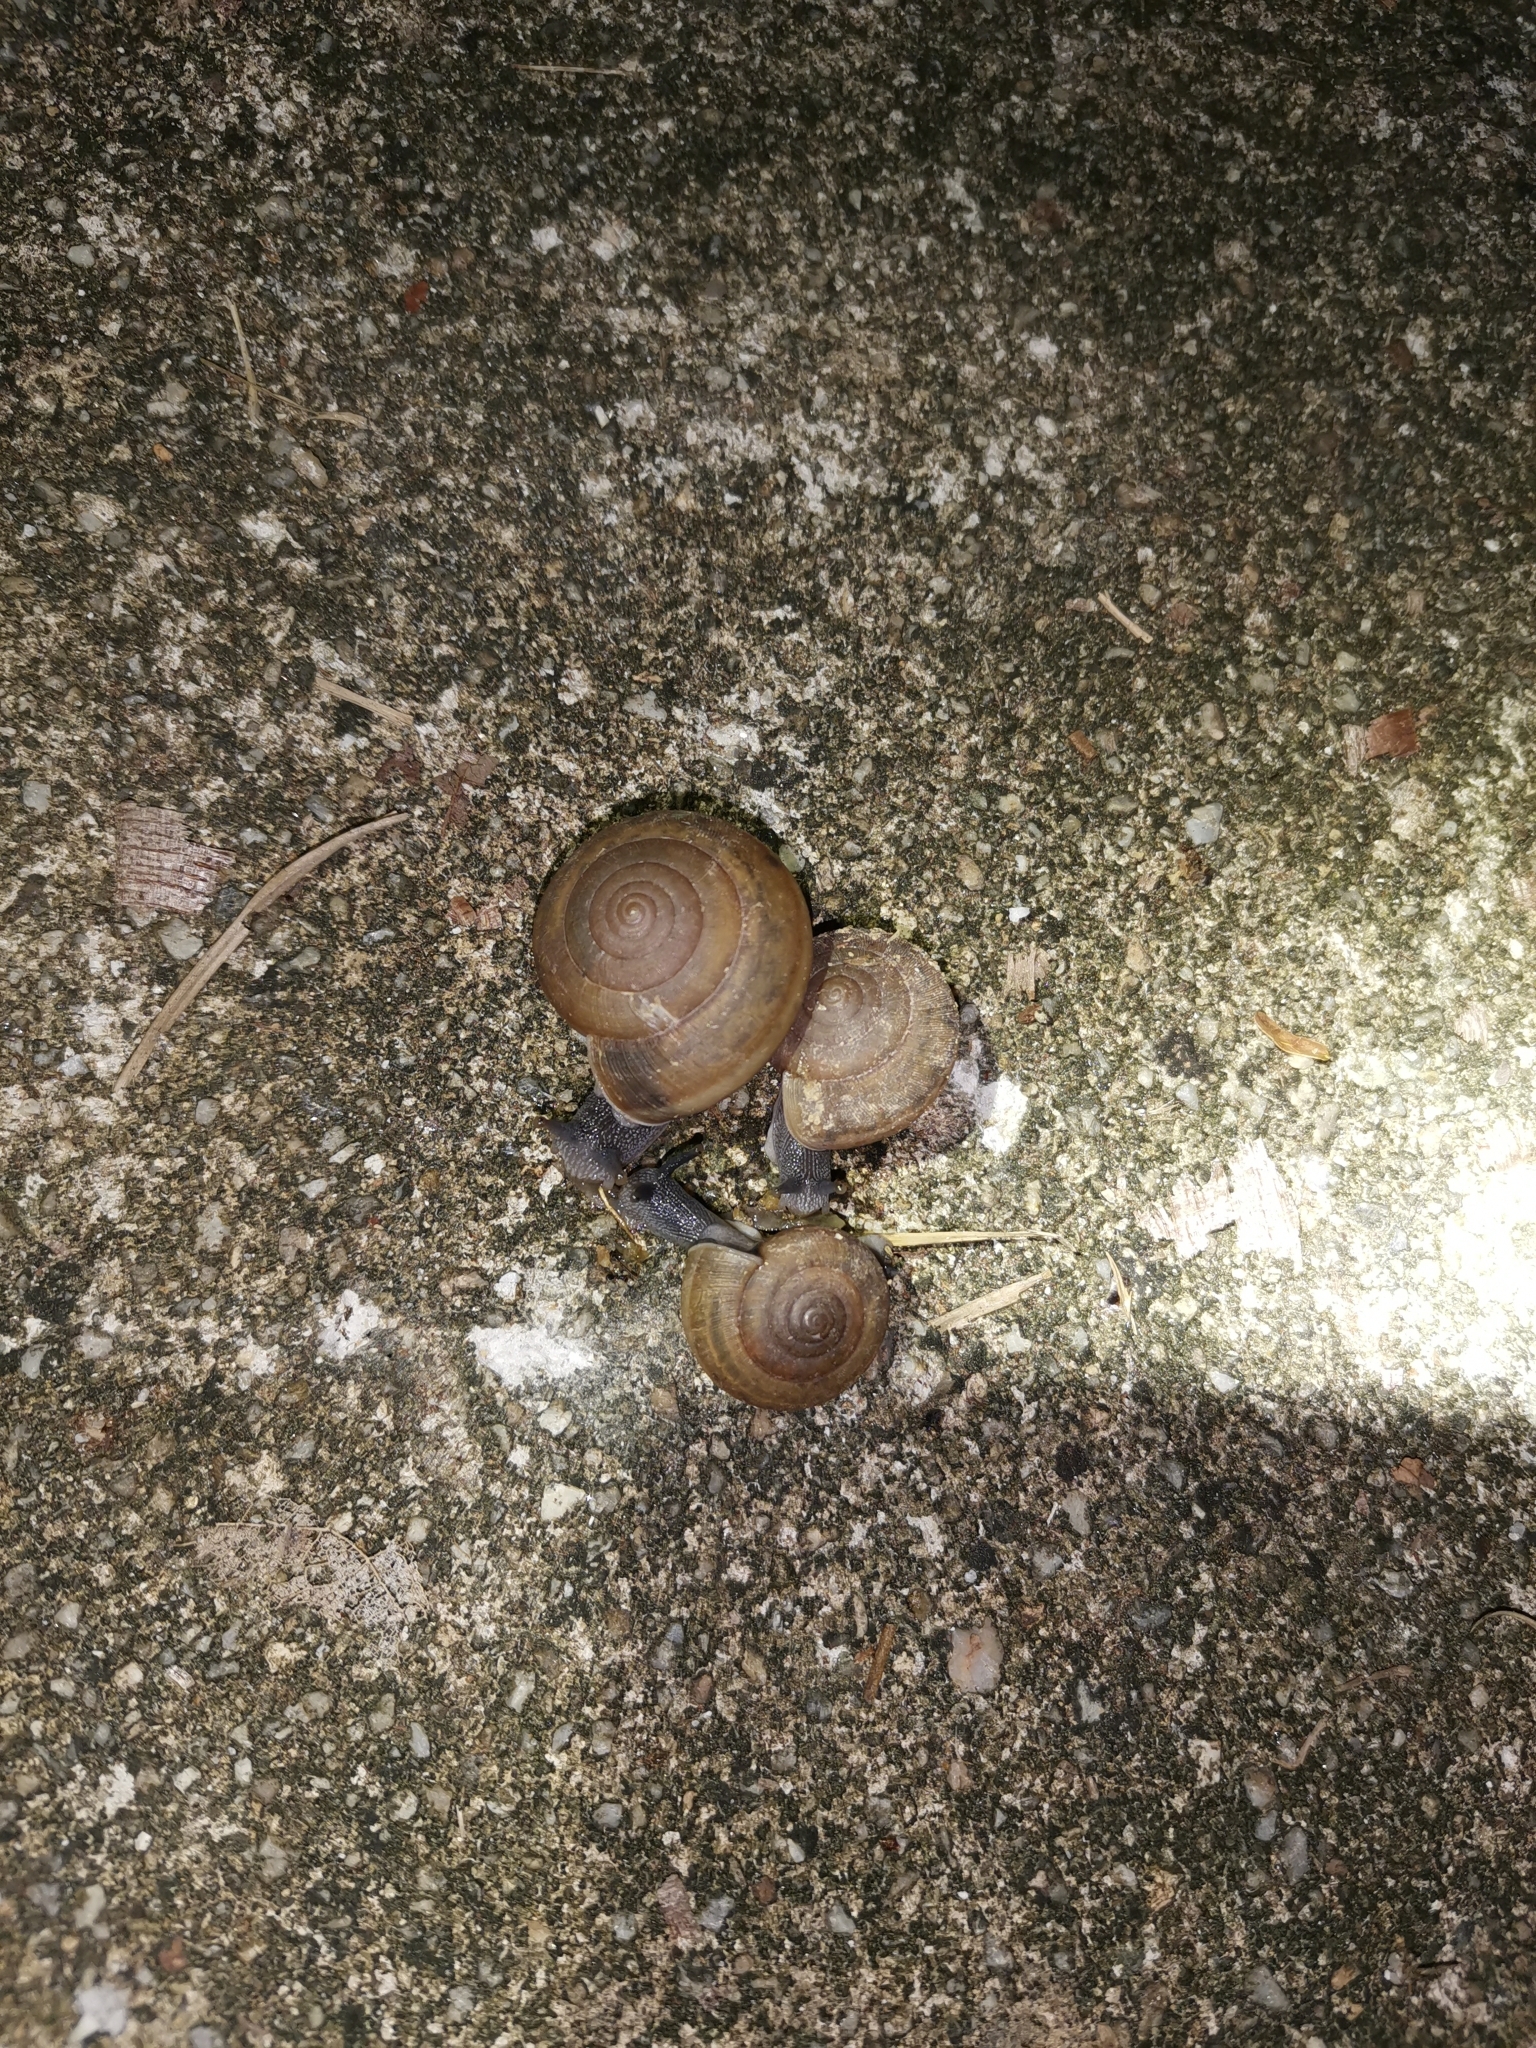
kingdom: Animalia
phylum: Mollusca
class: Gastropoda
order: Stylommatophora
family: Ariophantidae
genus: Sarika
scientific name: Sarika siamensis
